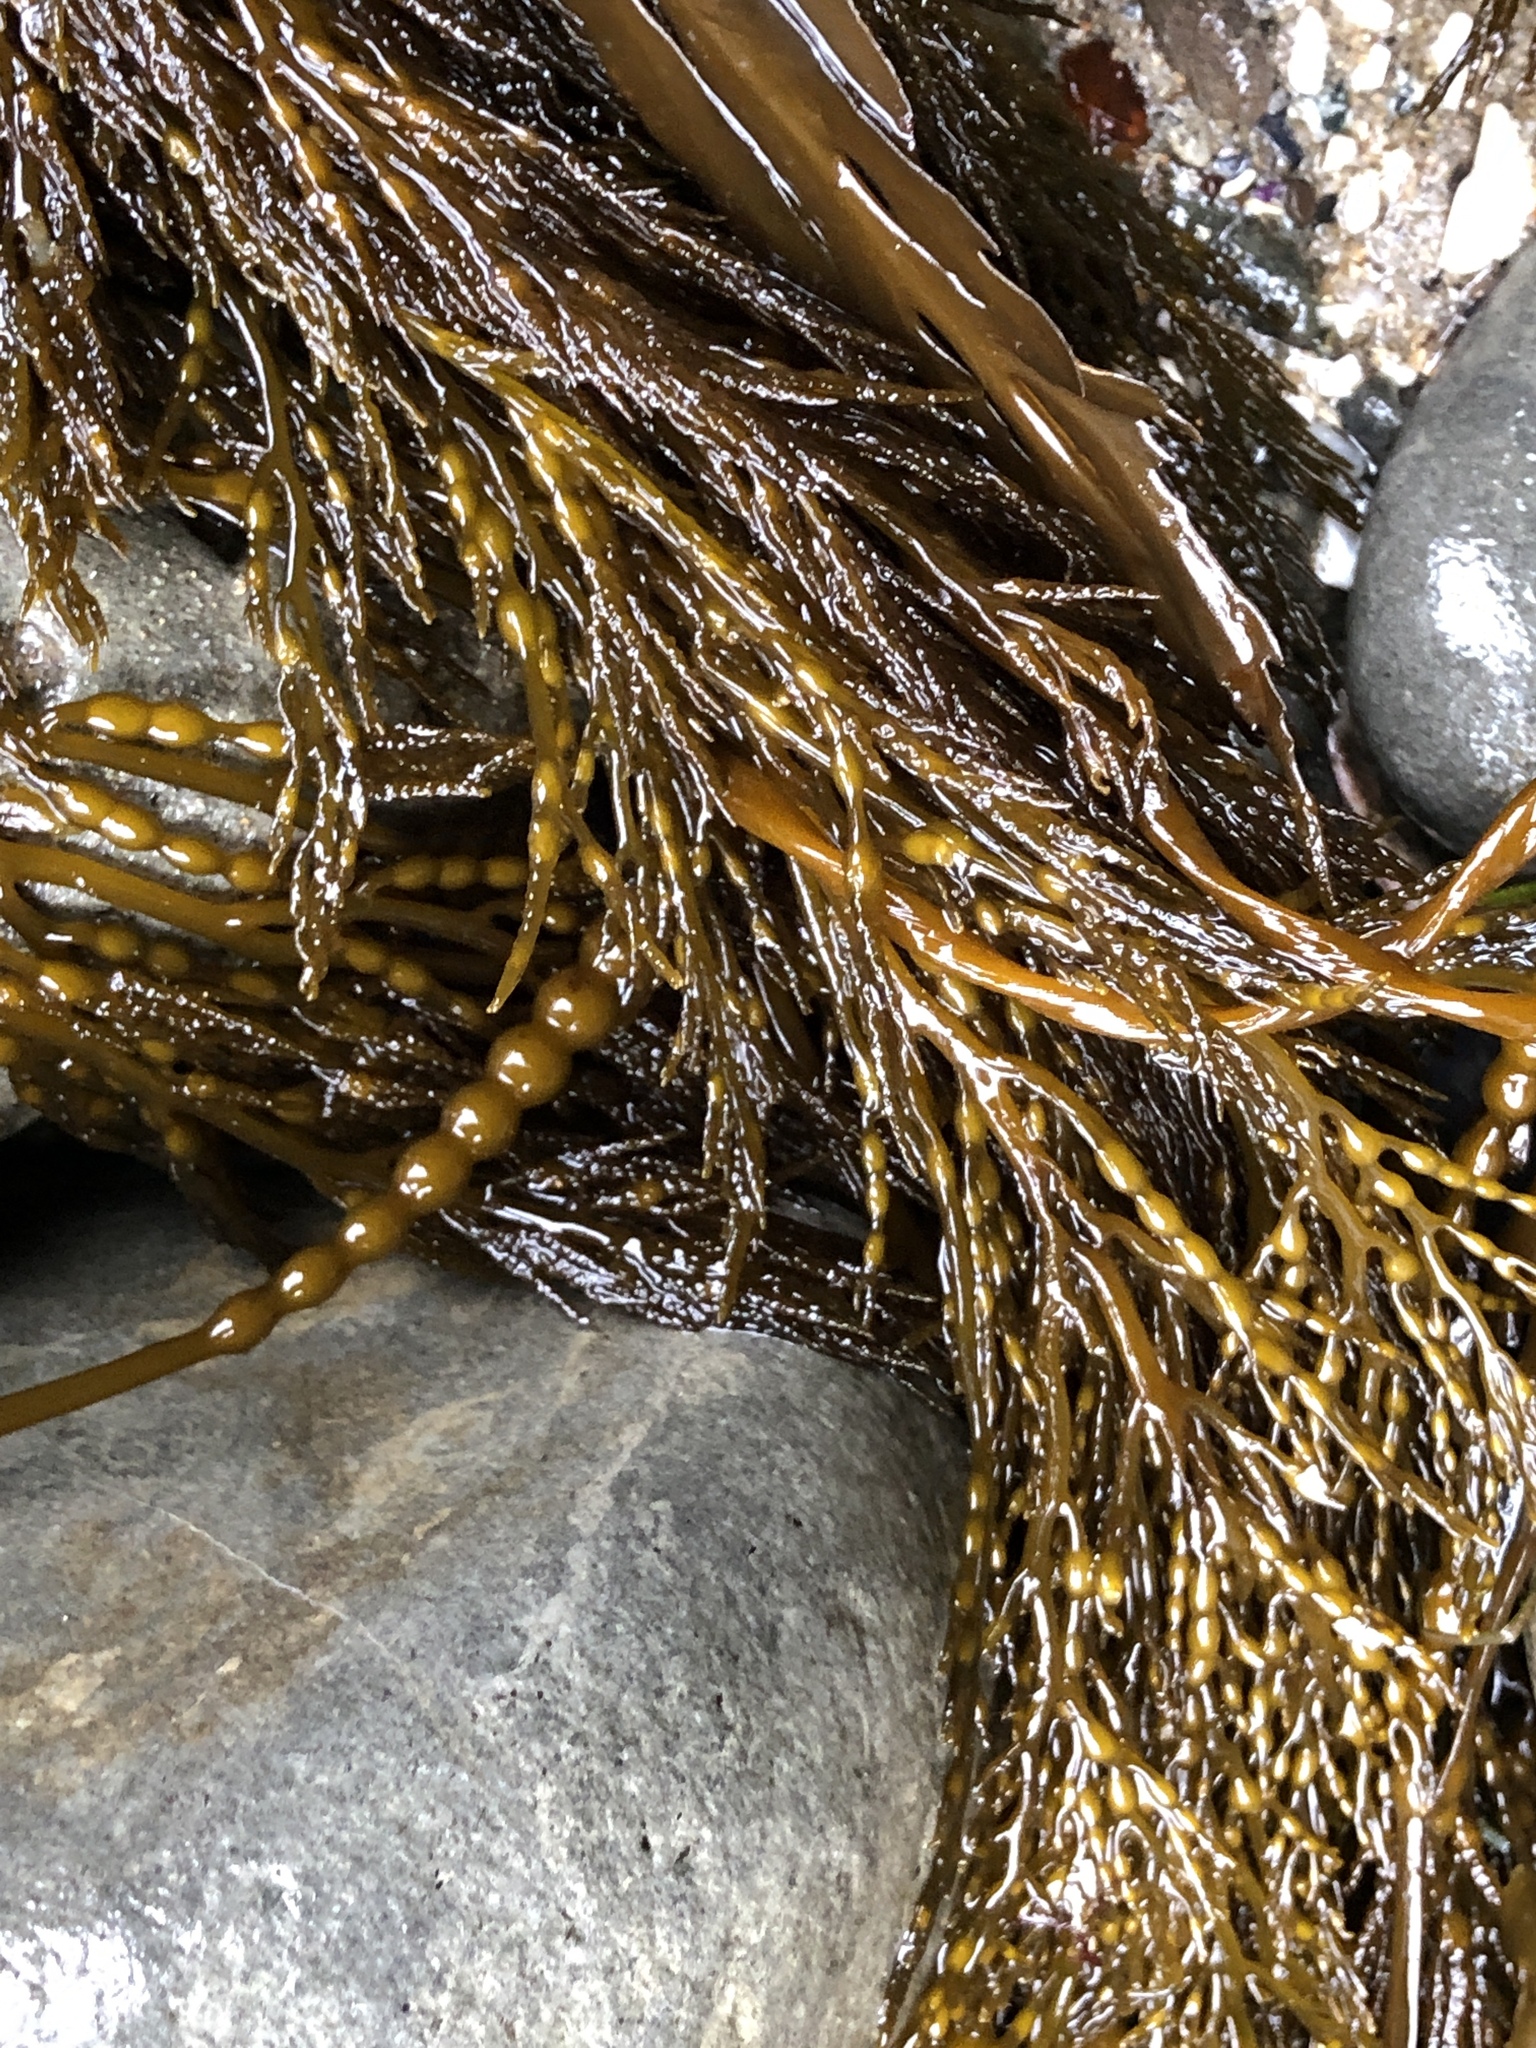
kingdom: Chromista
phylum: Ochrophyta
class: Phaeophyceae
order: Fucales
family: Sargassaceae
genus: Stephanocystis
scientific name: Stephanocystis
